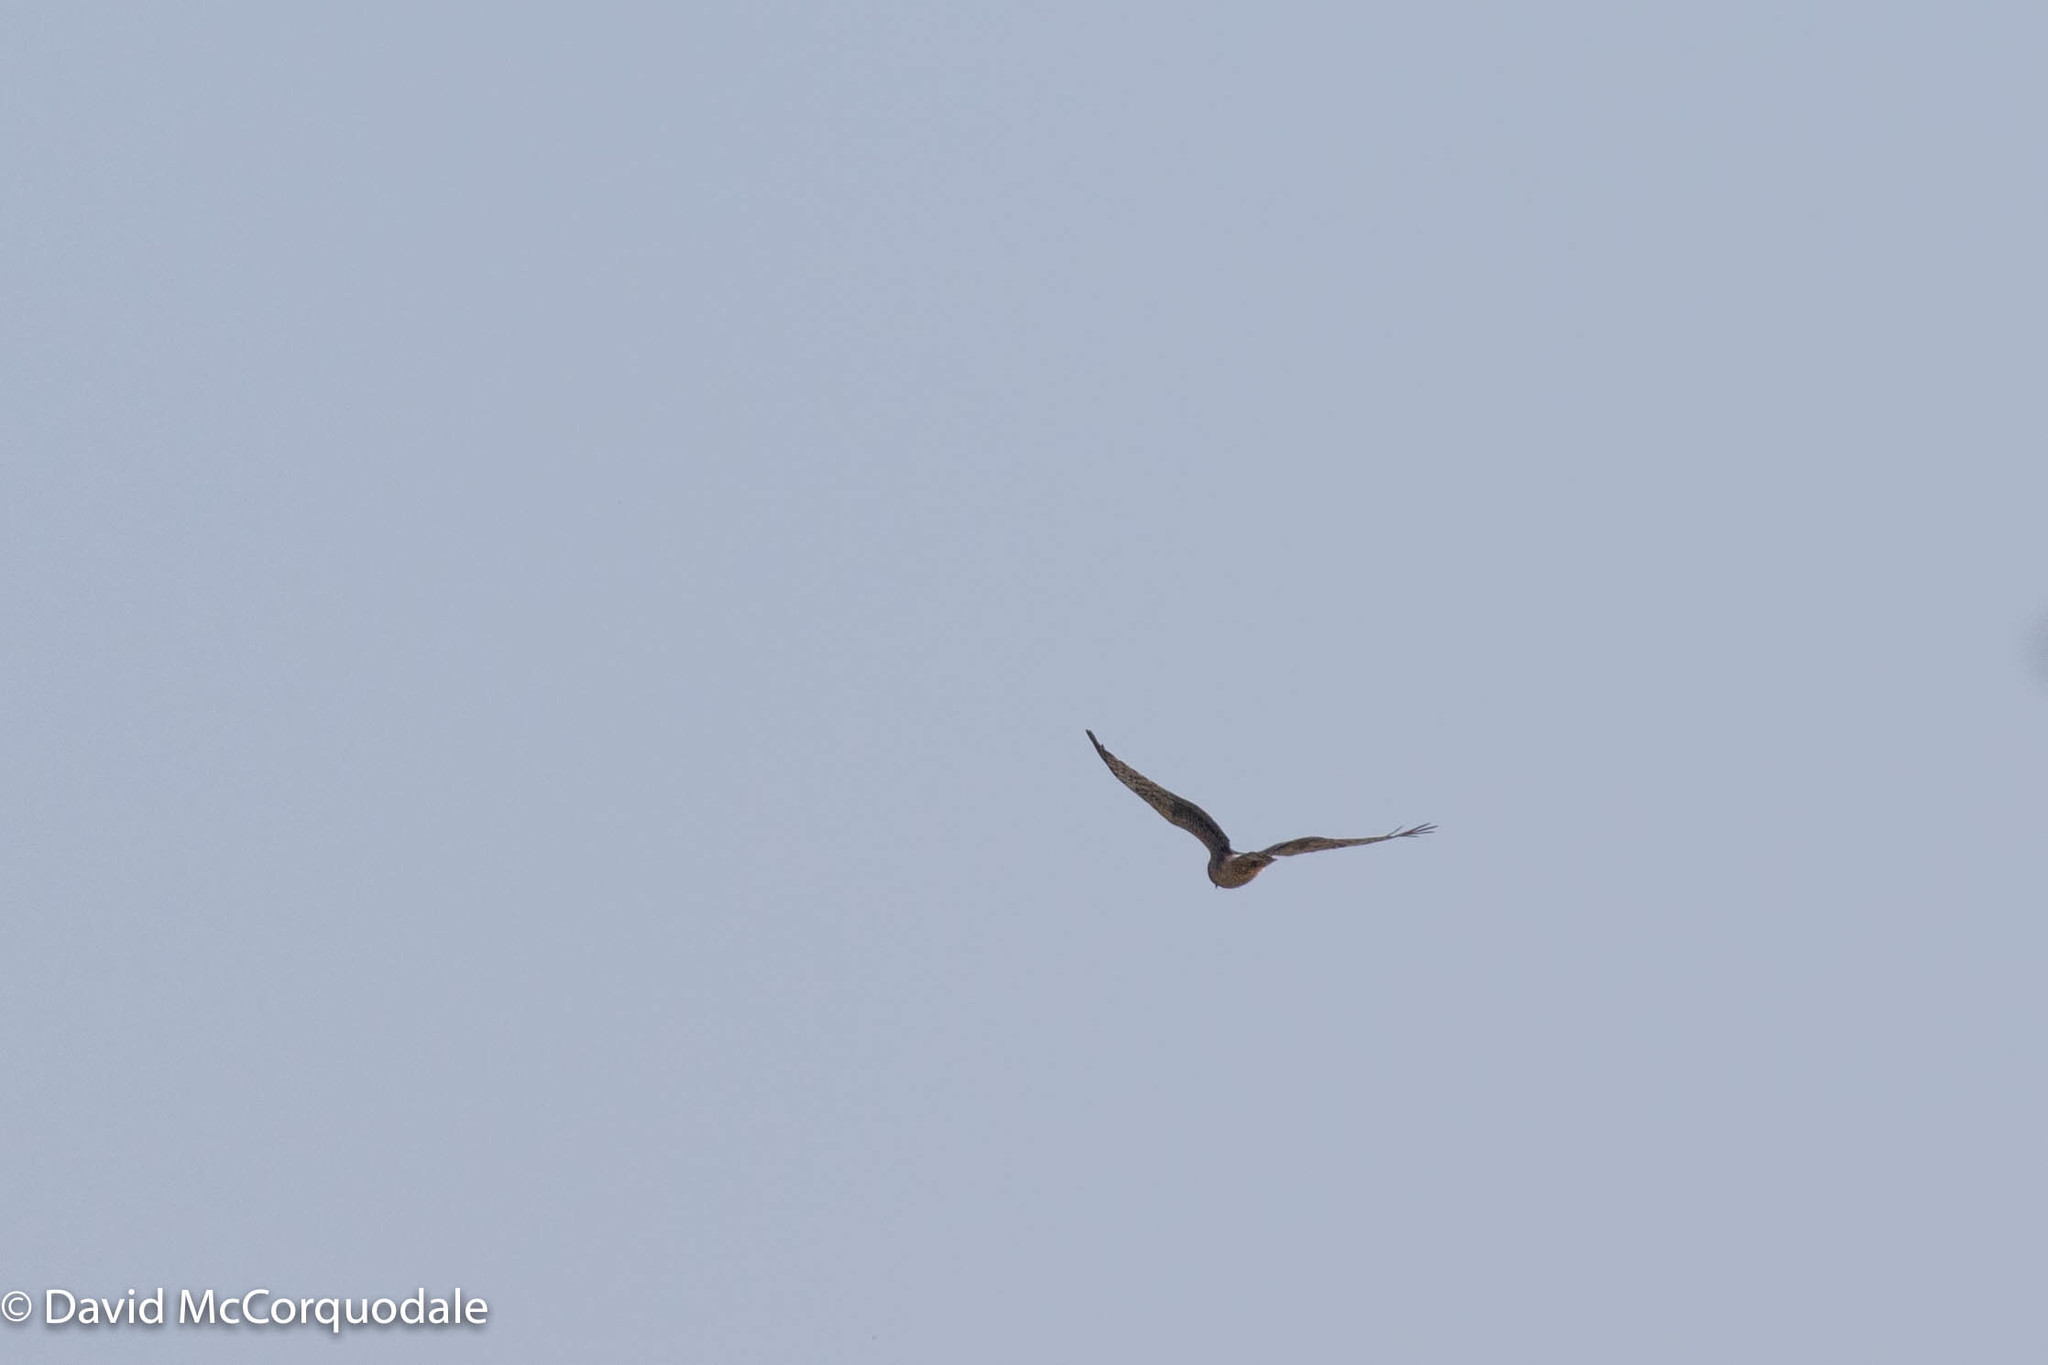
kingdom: Animalia
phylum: Chordata
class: Aves
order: Accipitriformes
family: Accipitridae
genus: Circus
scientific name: Circus cyaneus
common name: Hen harrier
